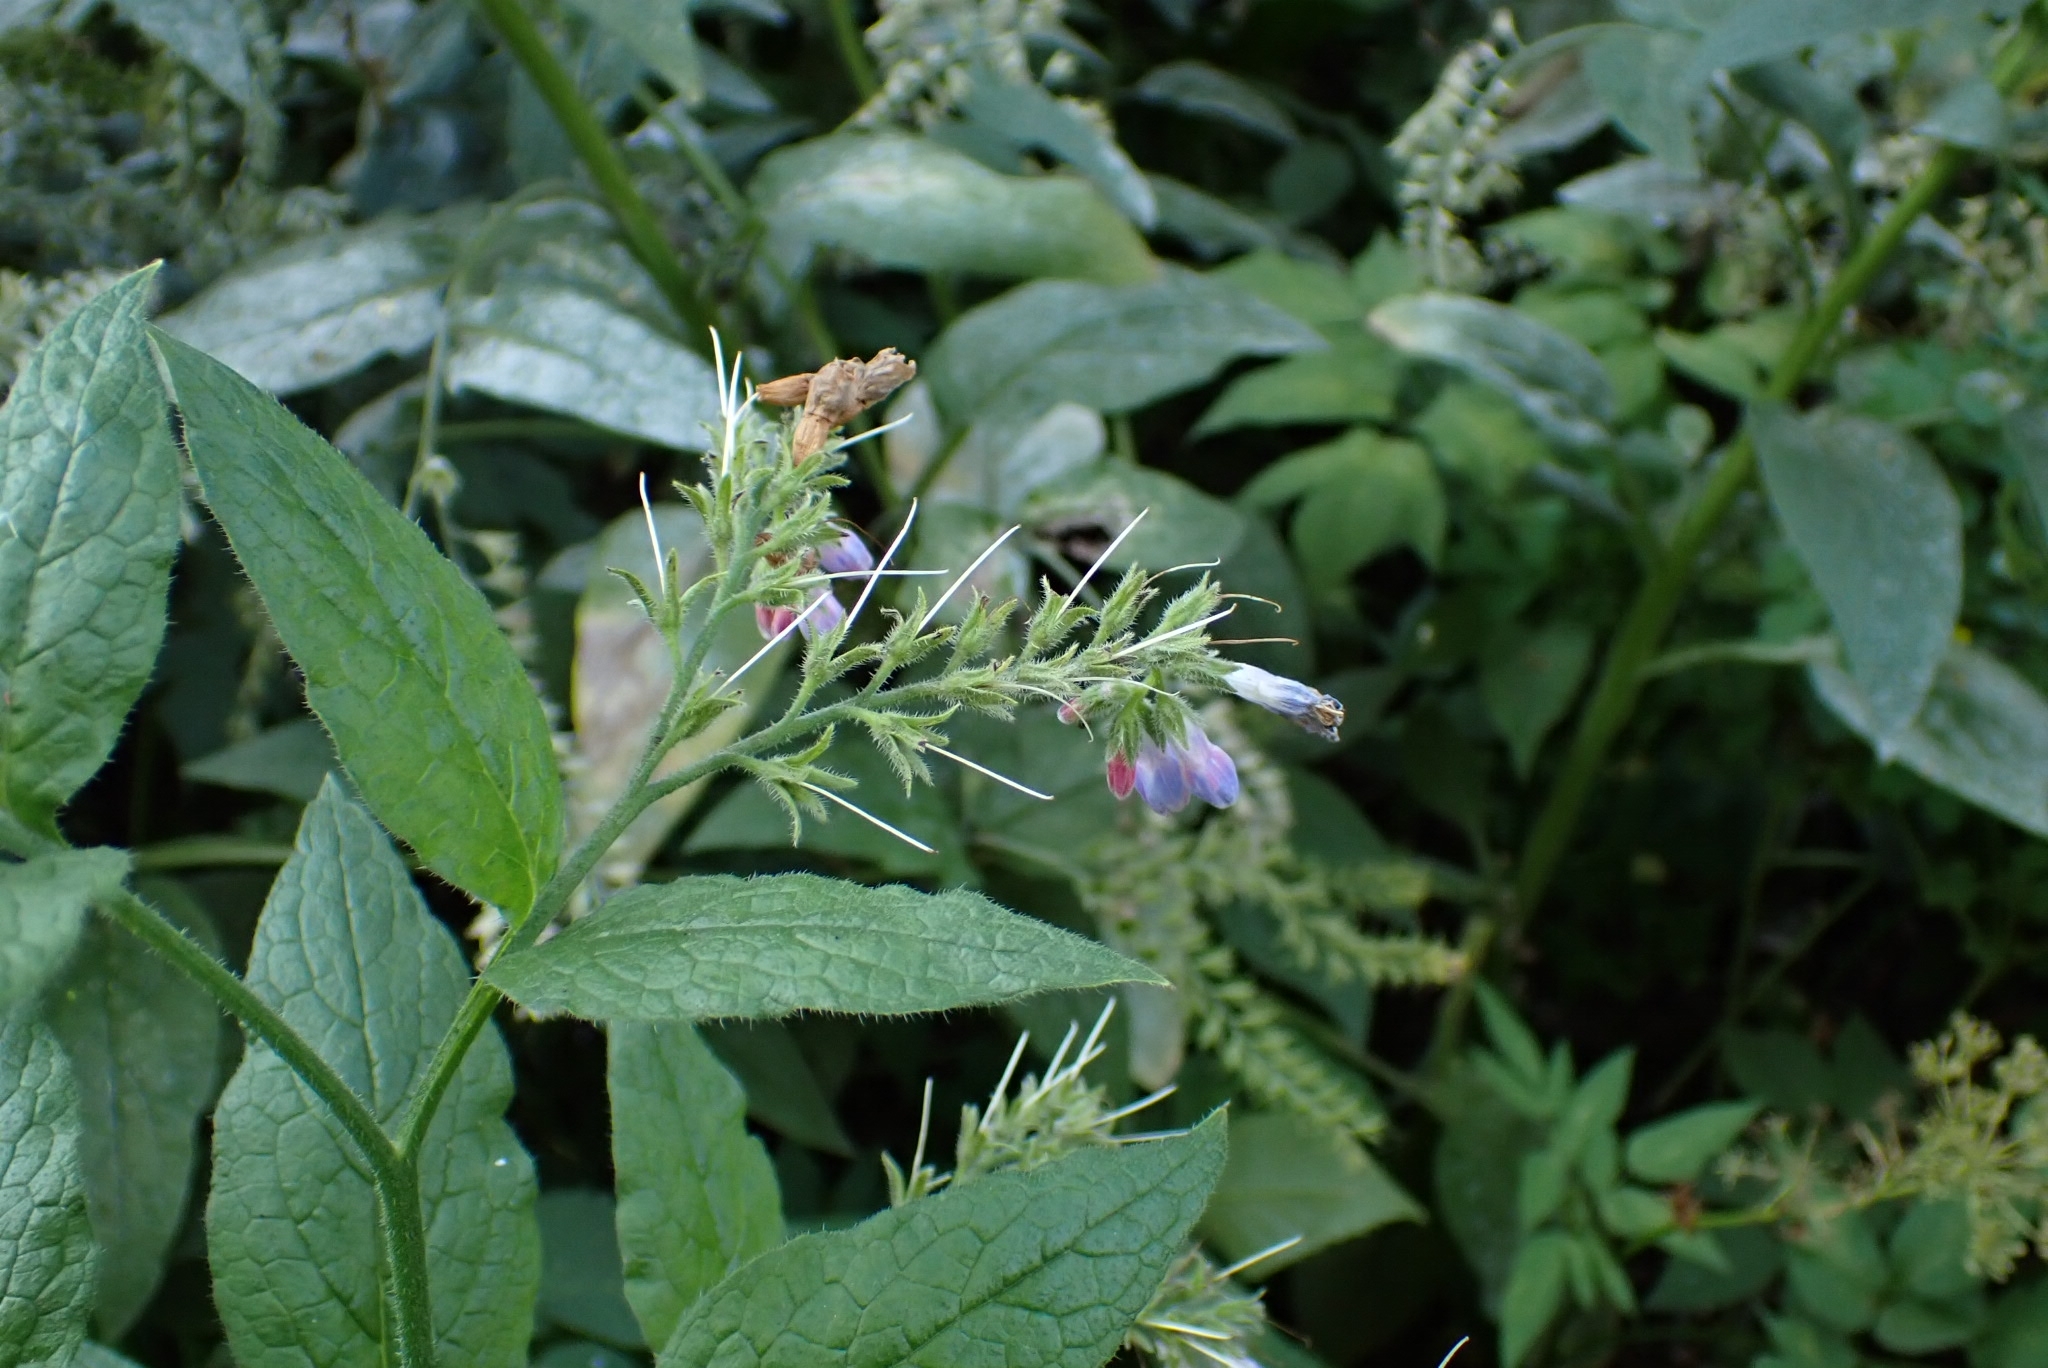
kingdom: Plantae
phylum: Tracheophyta
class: Magnoliopsida
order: Boraginales
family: Boraginaceae
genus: Symphytum
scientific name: Symphytum caucasicum
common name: Caucasian comfrey
